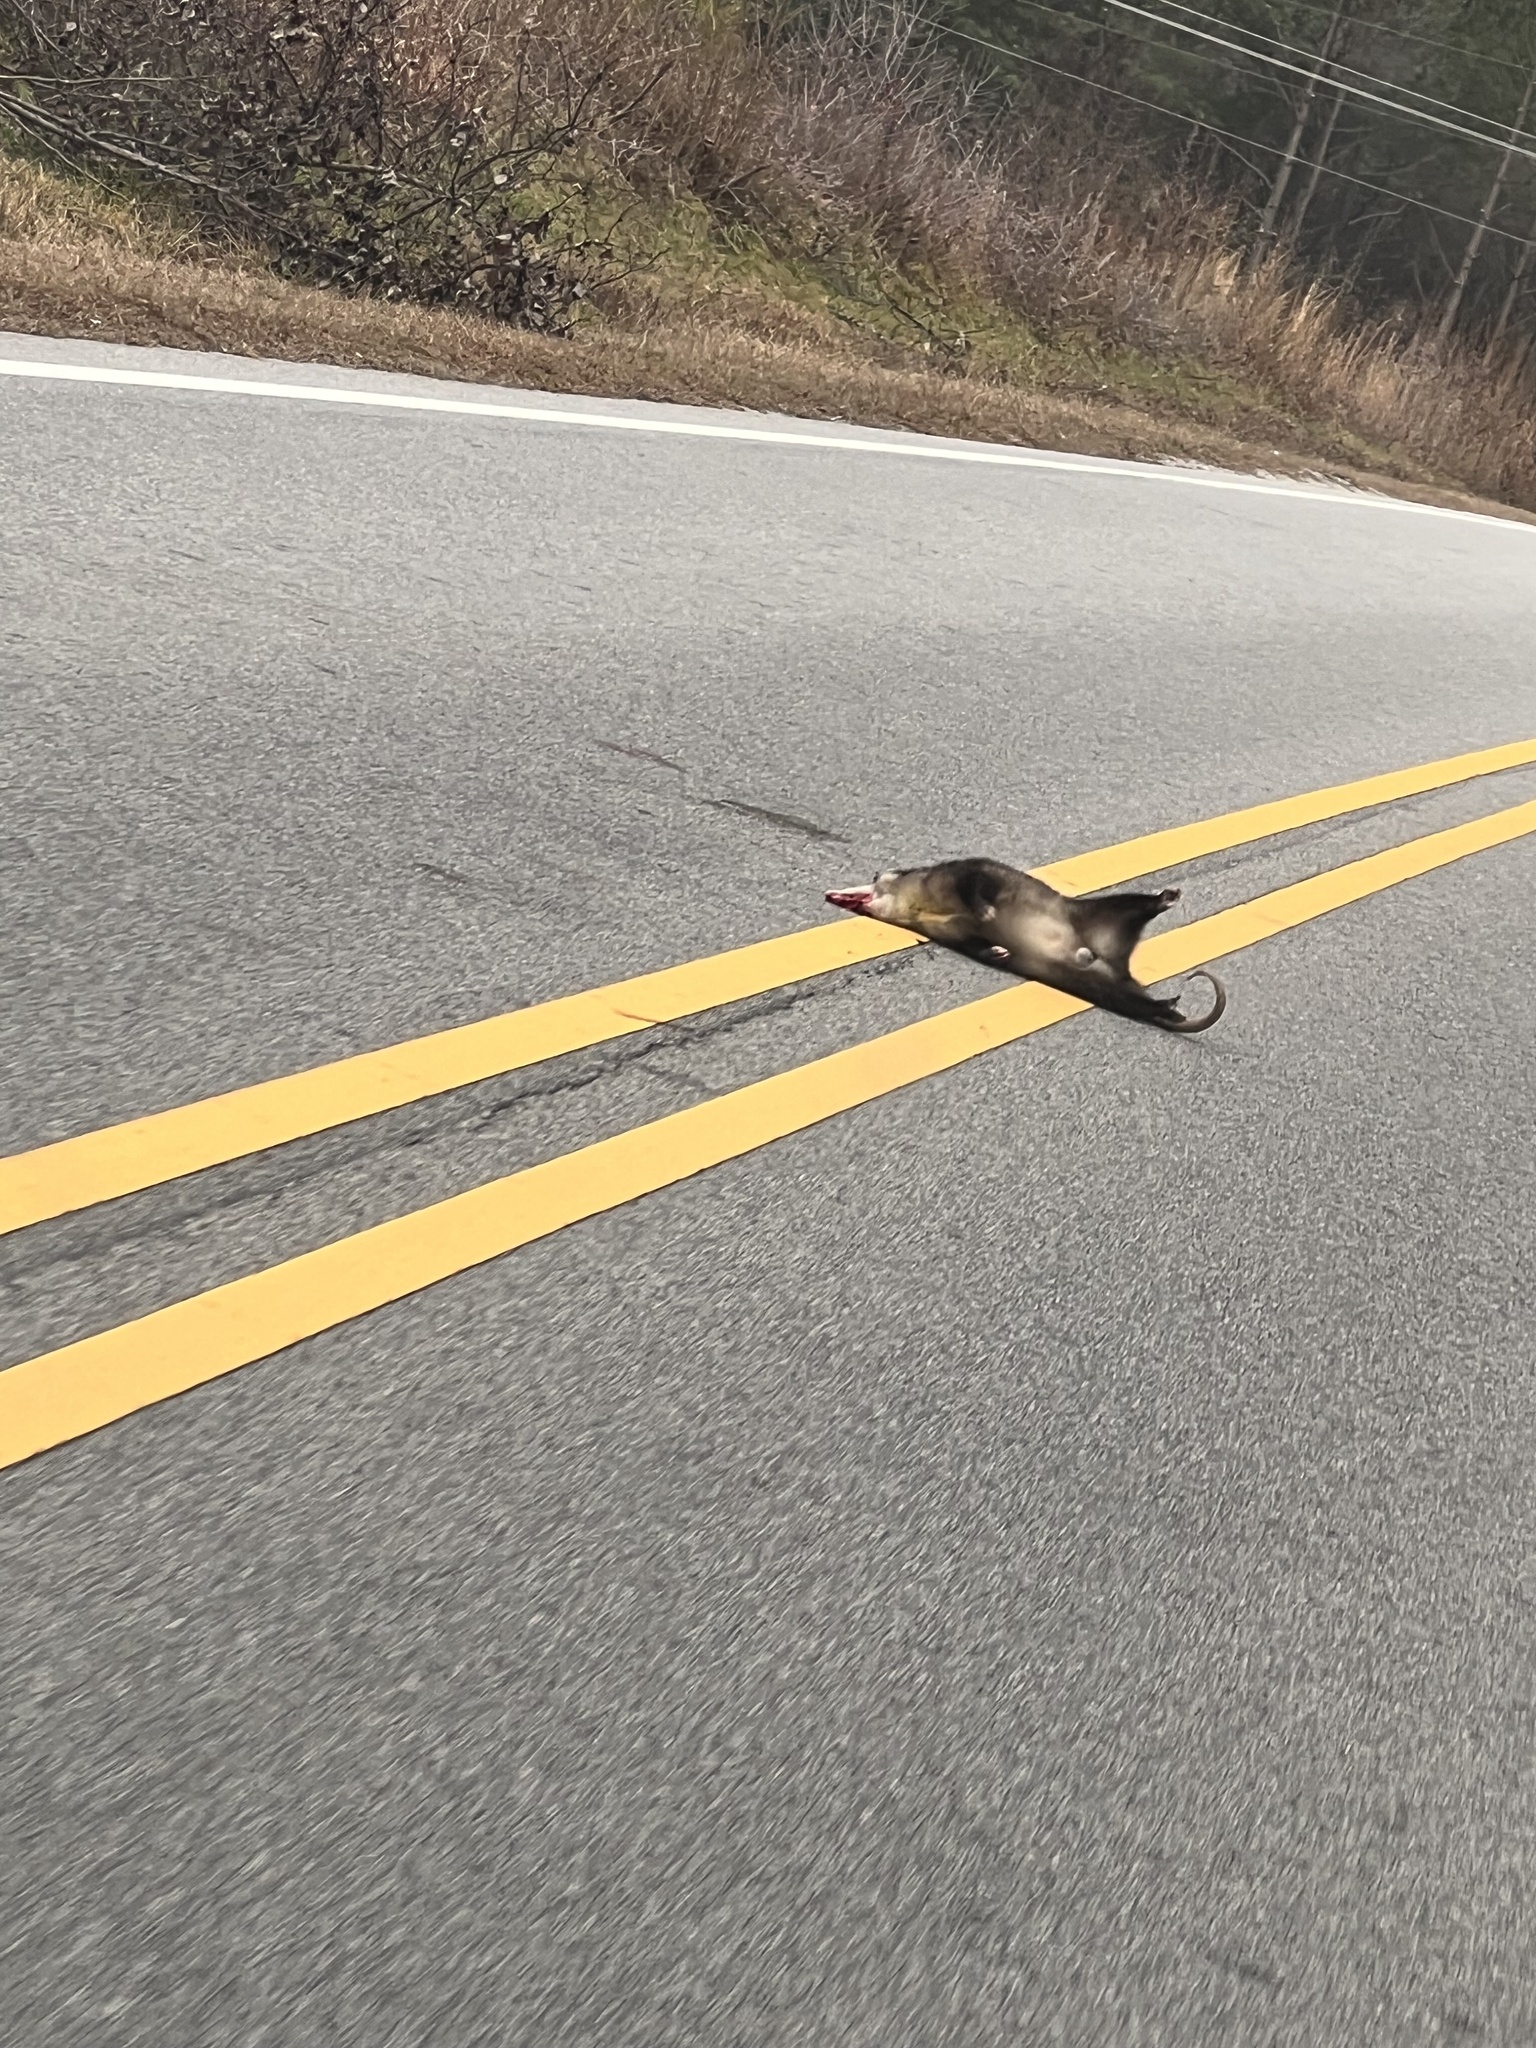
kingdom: Animalia
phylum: Chordata
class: Mammalia
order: Didelphimorphia
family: Didelphidae
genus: Didelphis
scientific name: Didelphis virginiana
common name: Virginia opossum
